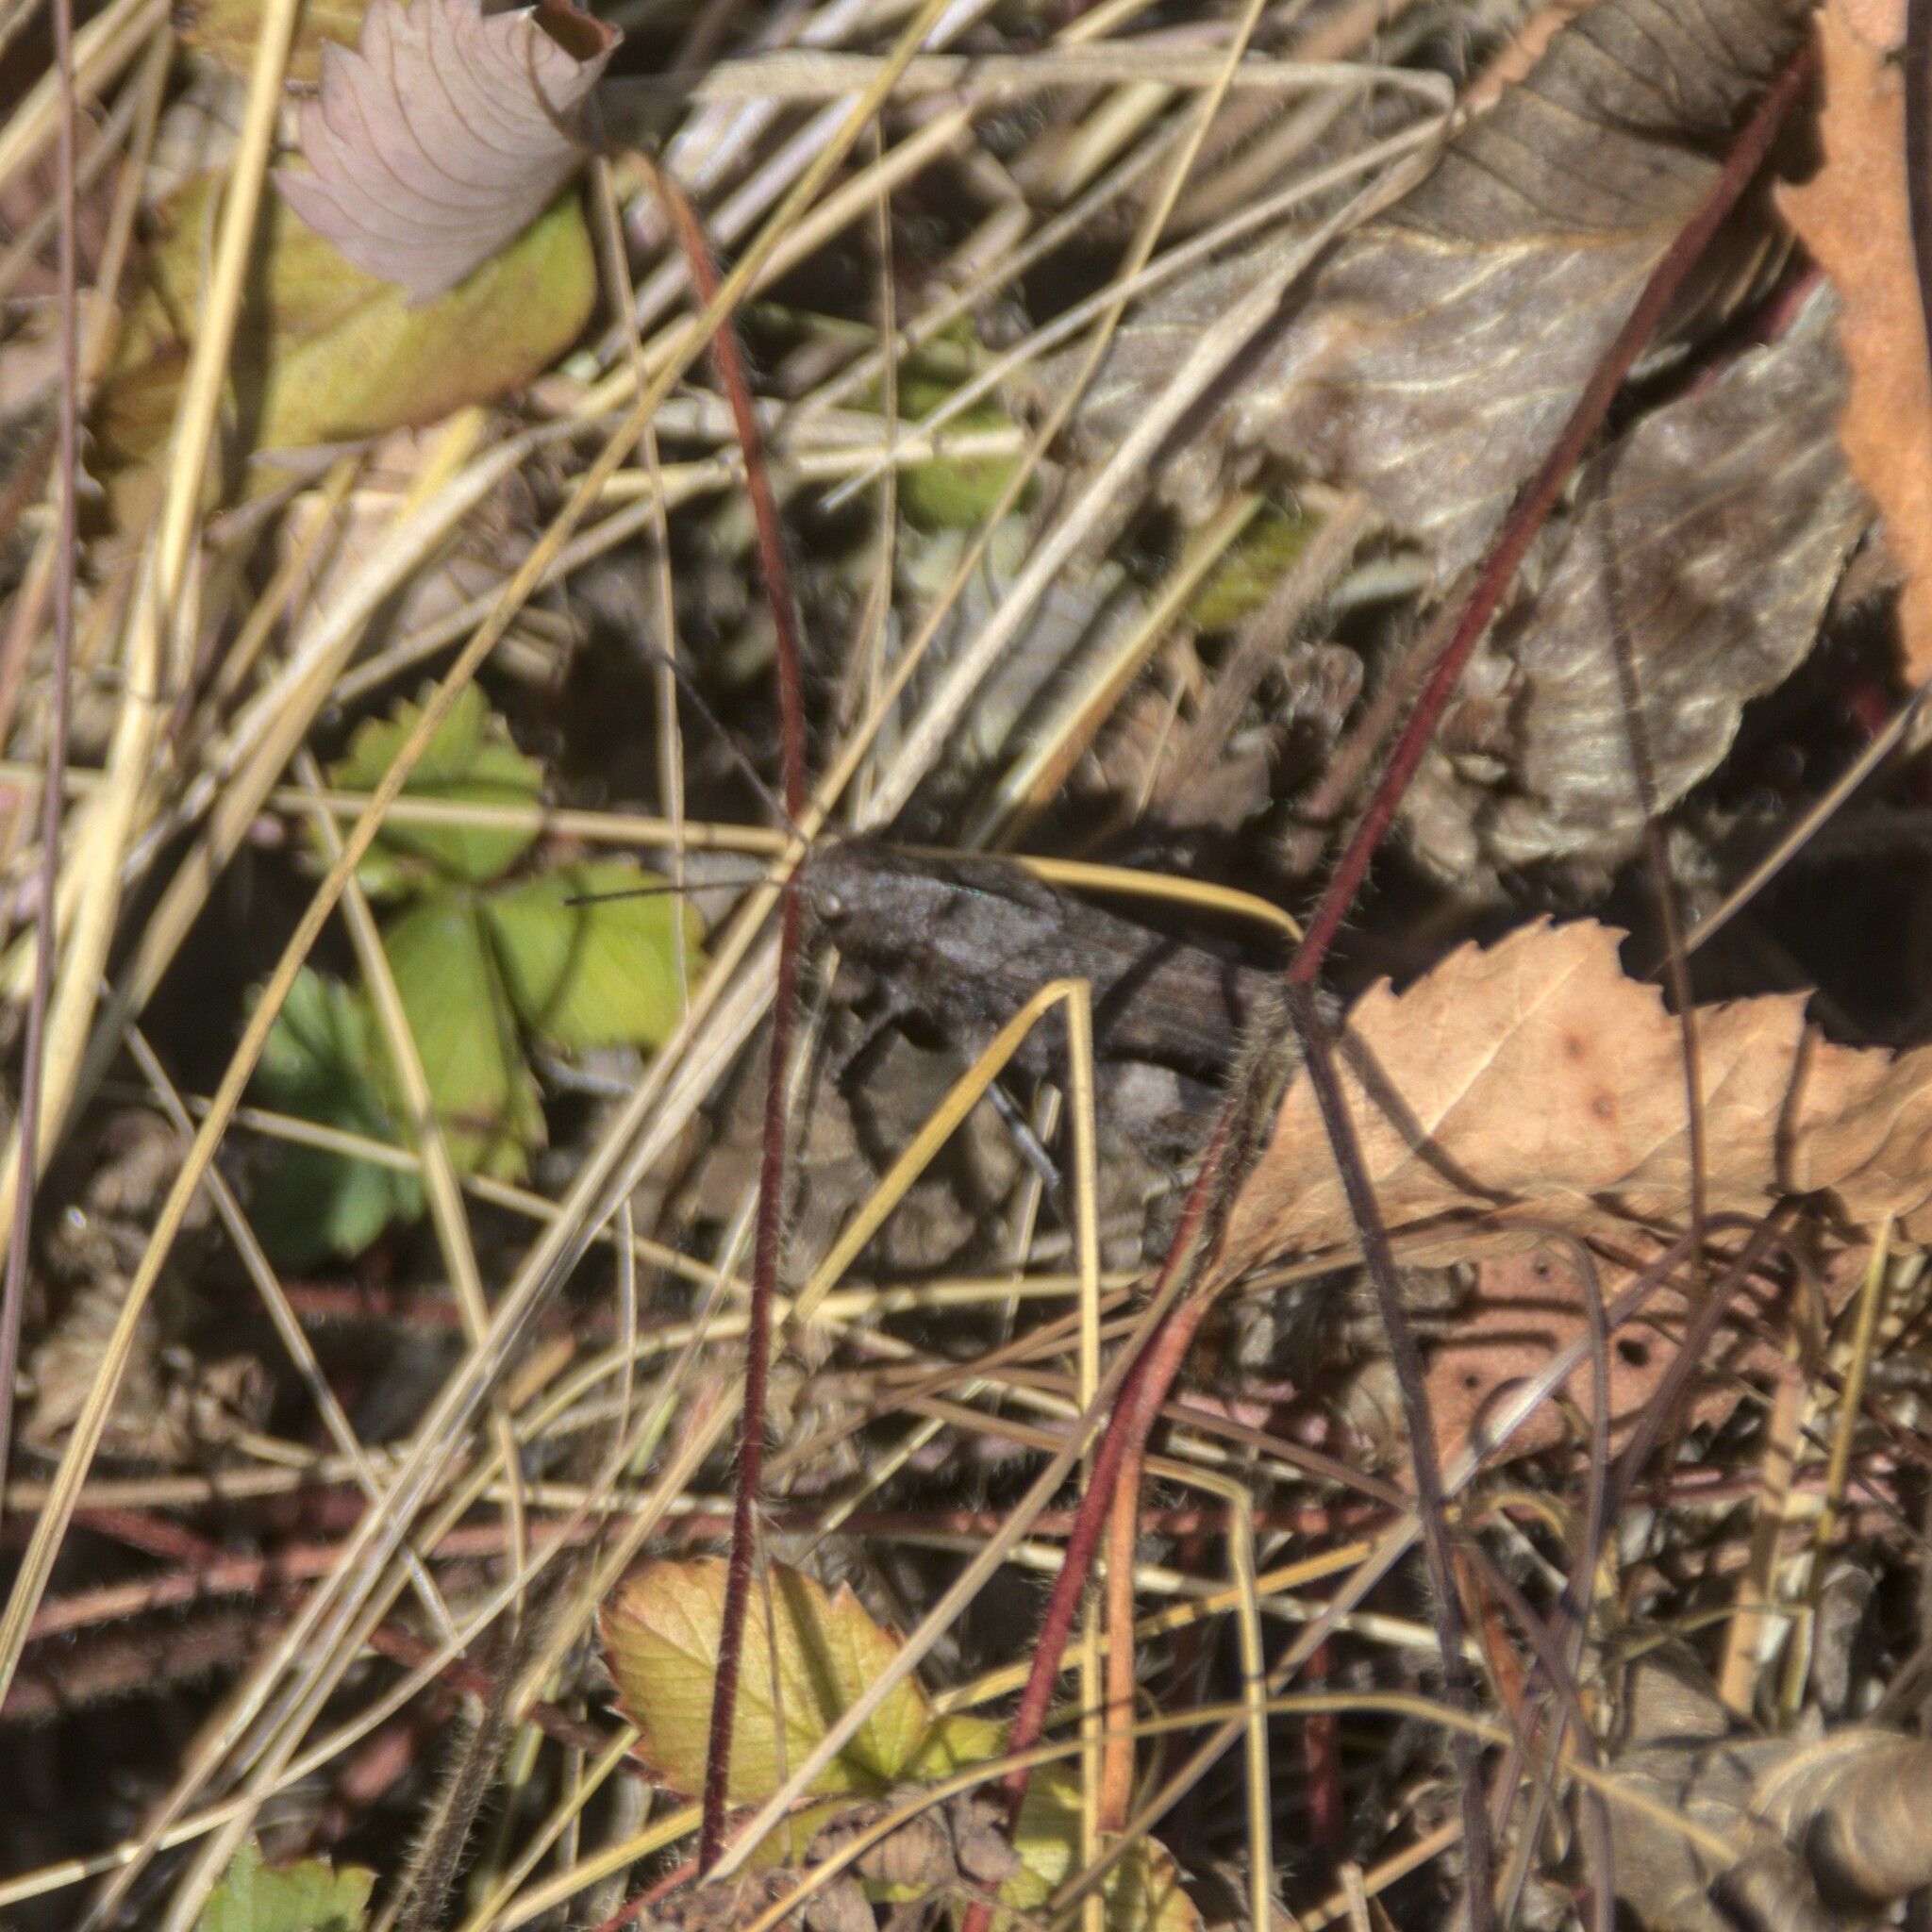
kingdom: Animalia
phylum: Arthropoda
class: Insecta
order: Orthoptera
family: Acrididae
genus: Psophus
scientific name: Psophus stridulus
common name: Rattle grasshopper
